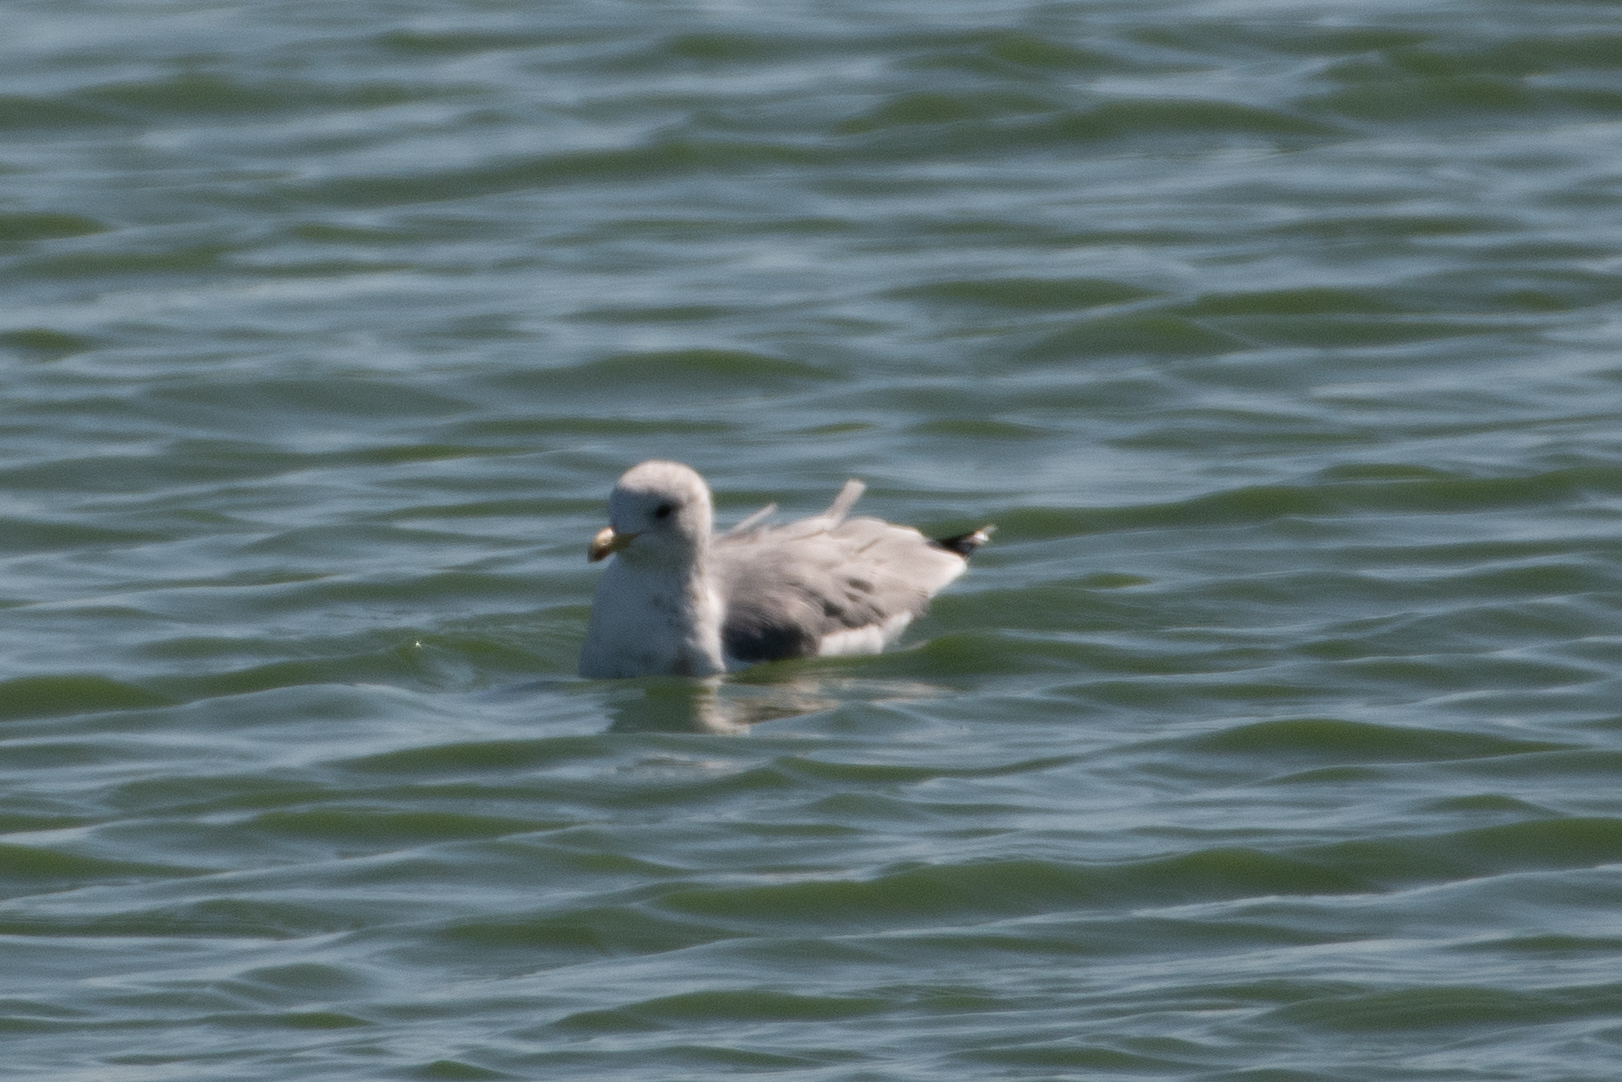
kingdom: Animalia
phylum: Chordata
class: Aves
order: Charadriiformes
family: Laridae
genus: Larus
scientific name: Larus californicus
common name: California gull
